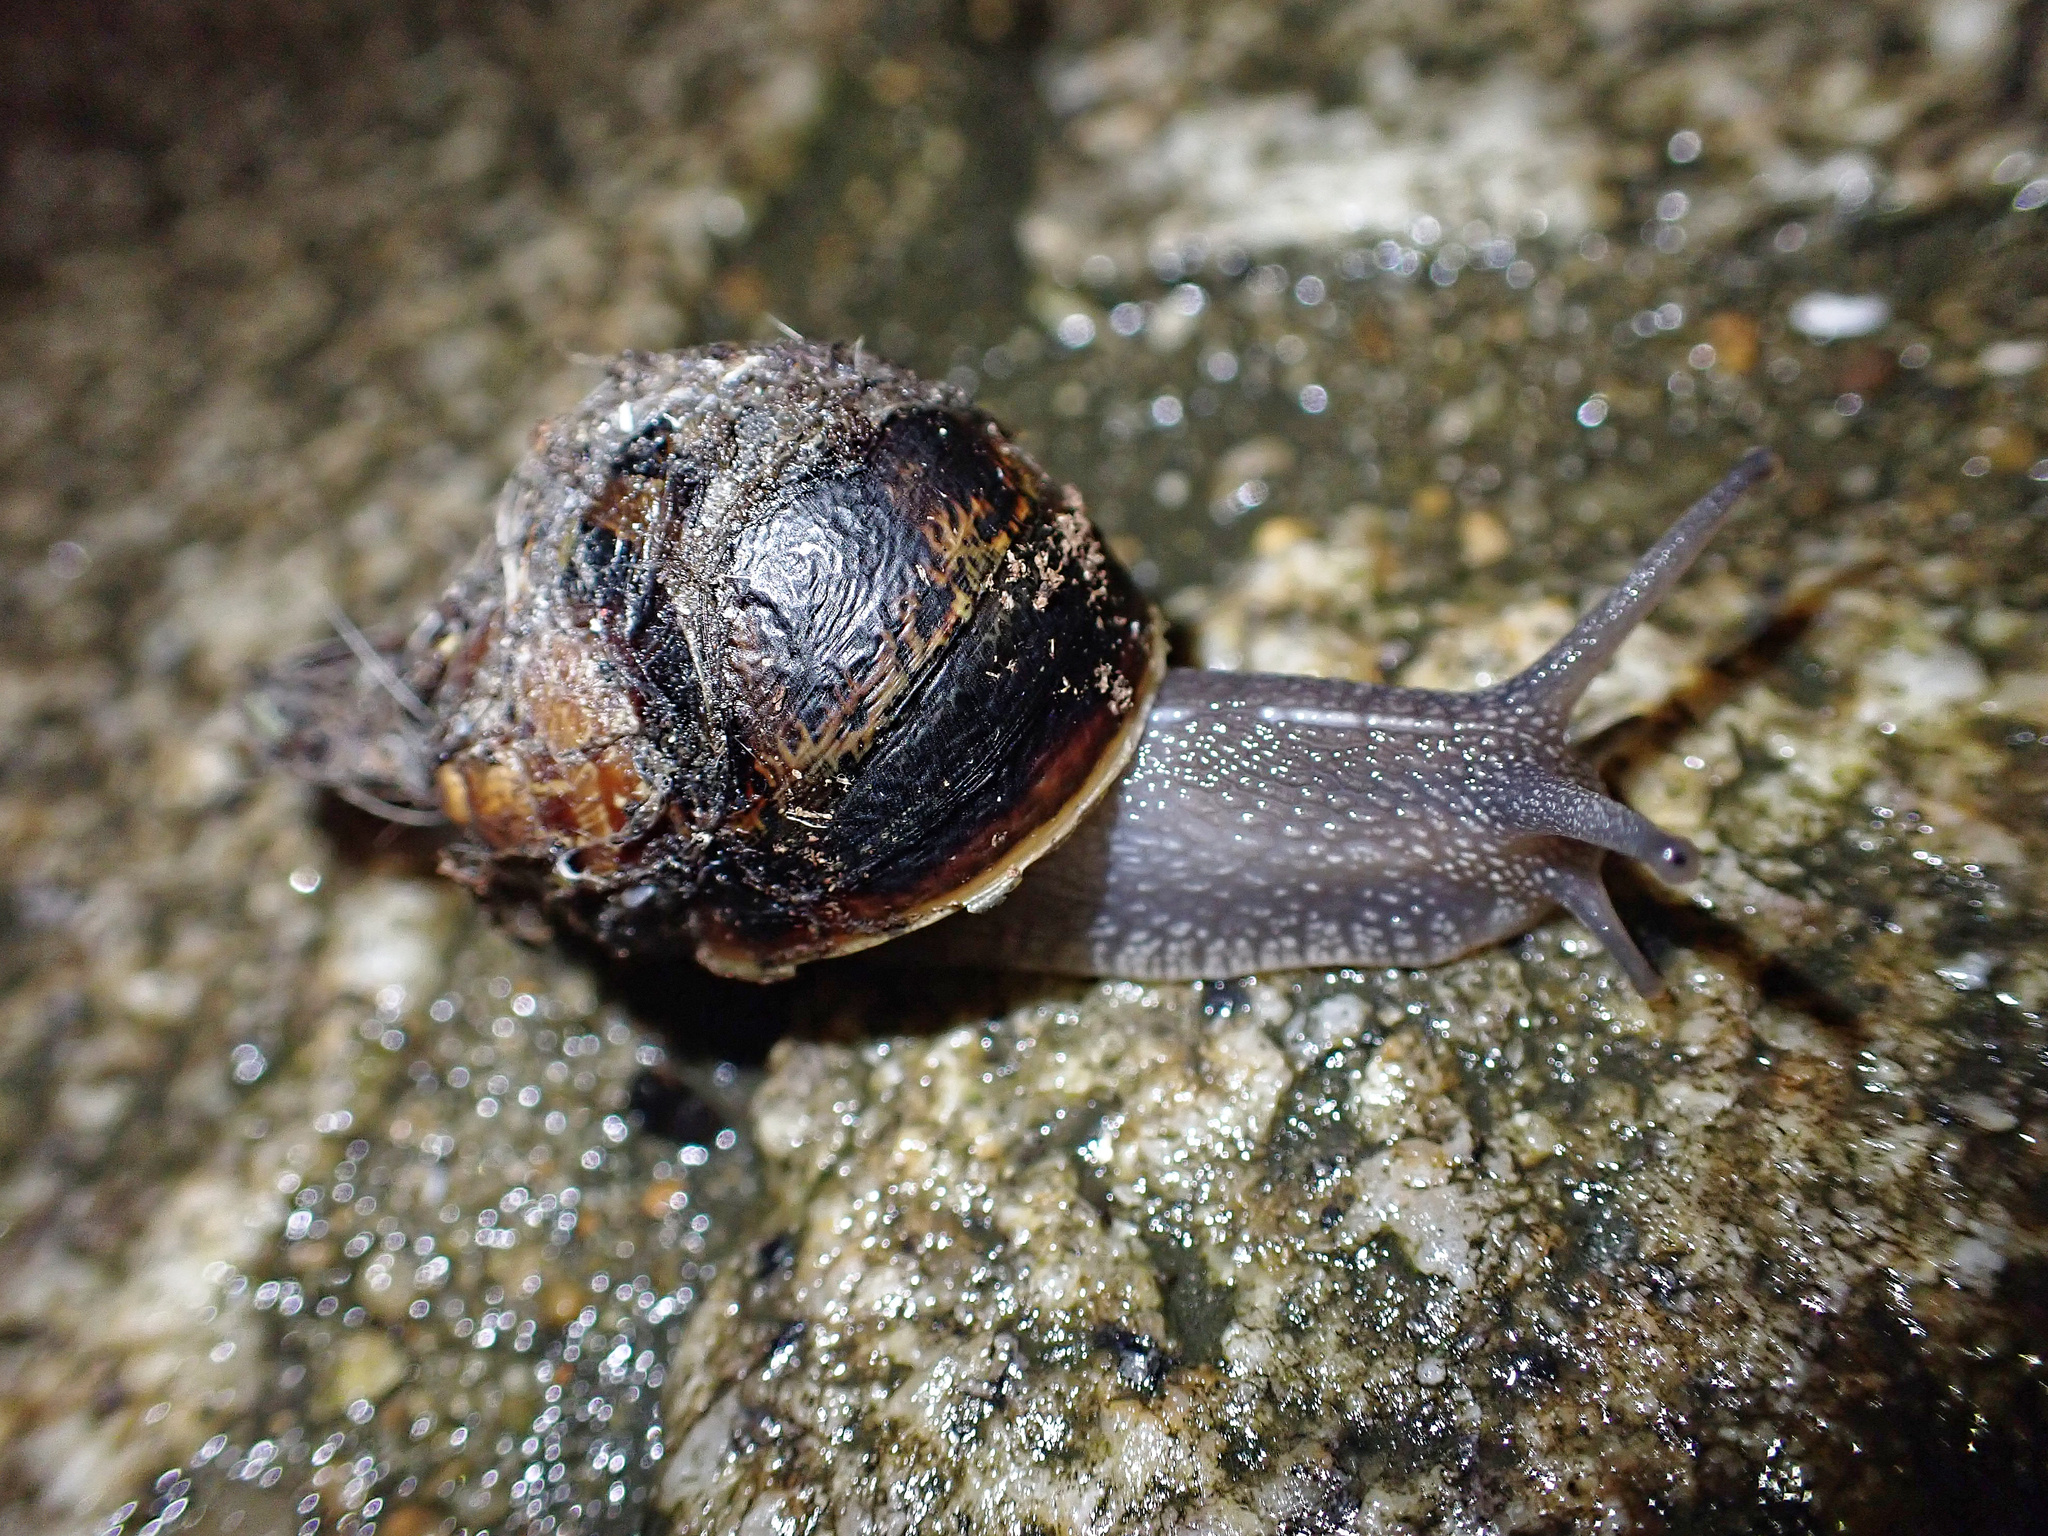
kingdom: Animalia
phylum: Mollusca
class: Gastropoda
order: Stylommatophora
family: Helicidae
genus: Cornu
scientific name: Cornu aspersum
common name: Brown garden snail
